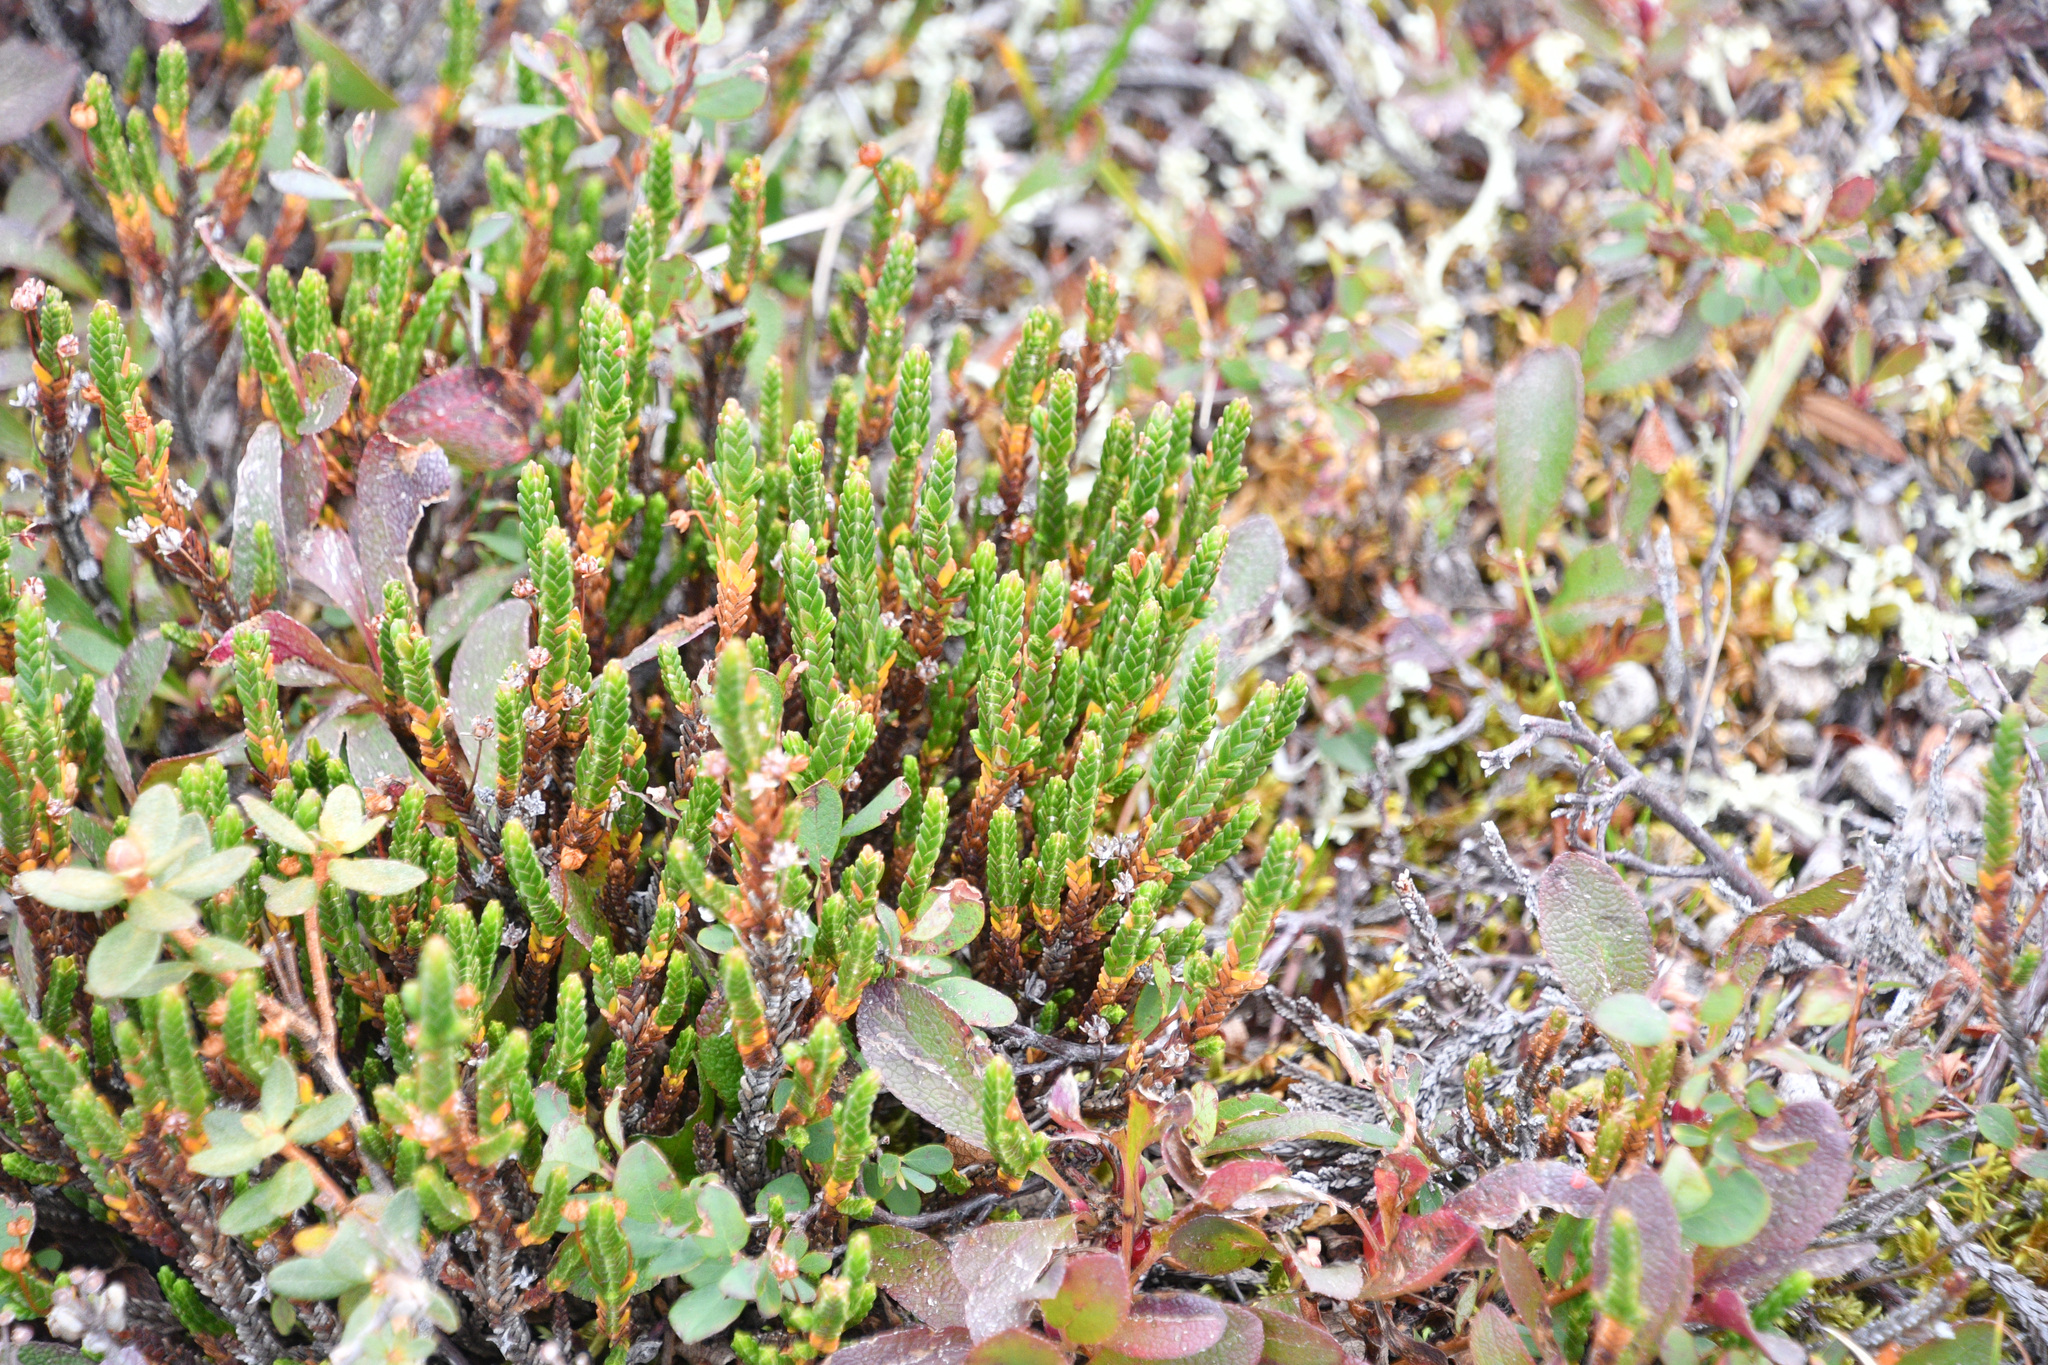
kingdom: Plantae
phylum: Tracheophyta
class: Magnoliopsida
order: Ericales
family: Ericaceae
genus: Cassiope
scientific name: Cassiope tetragona
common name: Arctic bell heather
